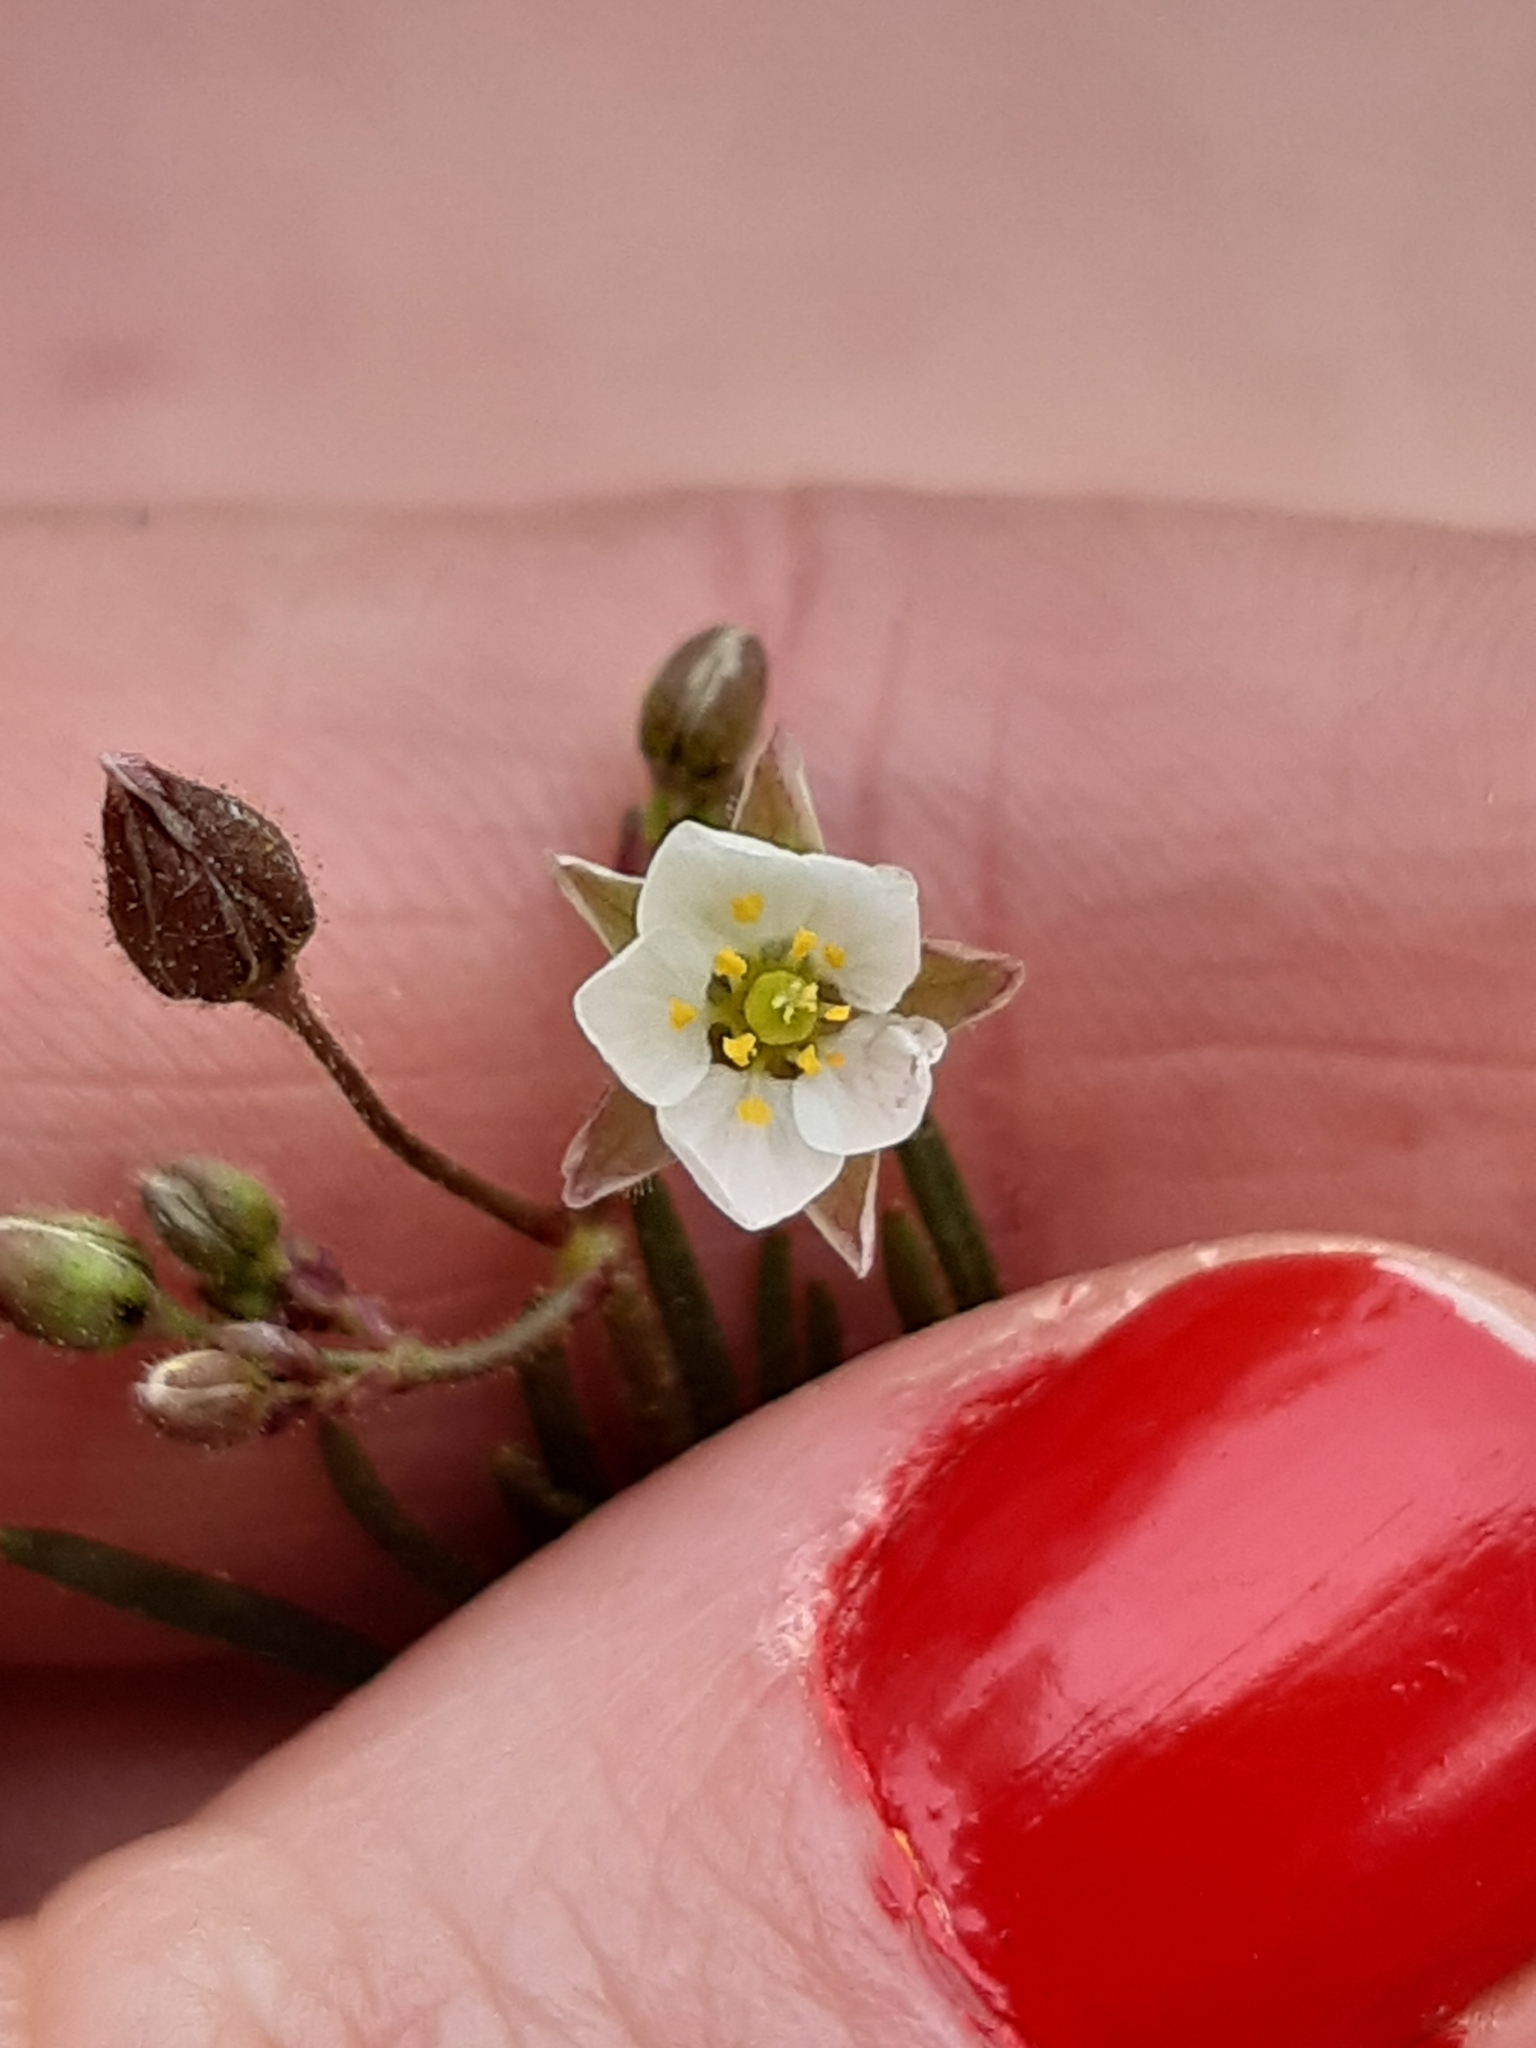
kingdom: Plantae
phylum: Tracheophyta
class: Magnoliopsida
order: Caryophyllales
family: Caryophyllaceae
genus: Spergula
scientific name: Spergula arvensis
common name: Corn spurrey
